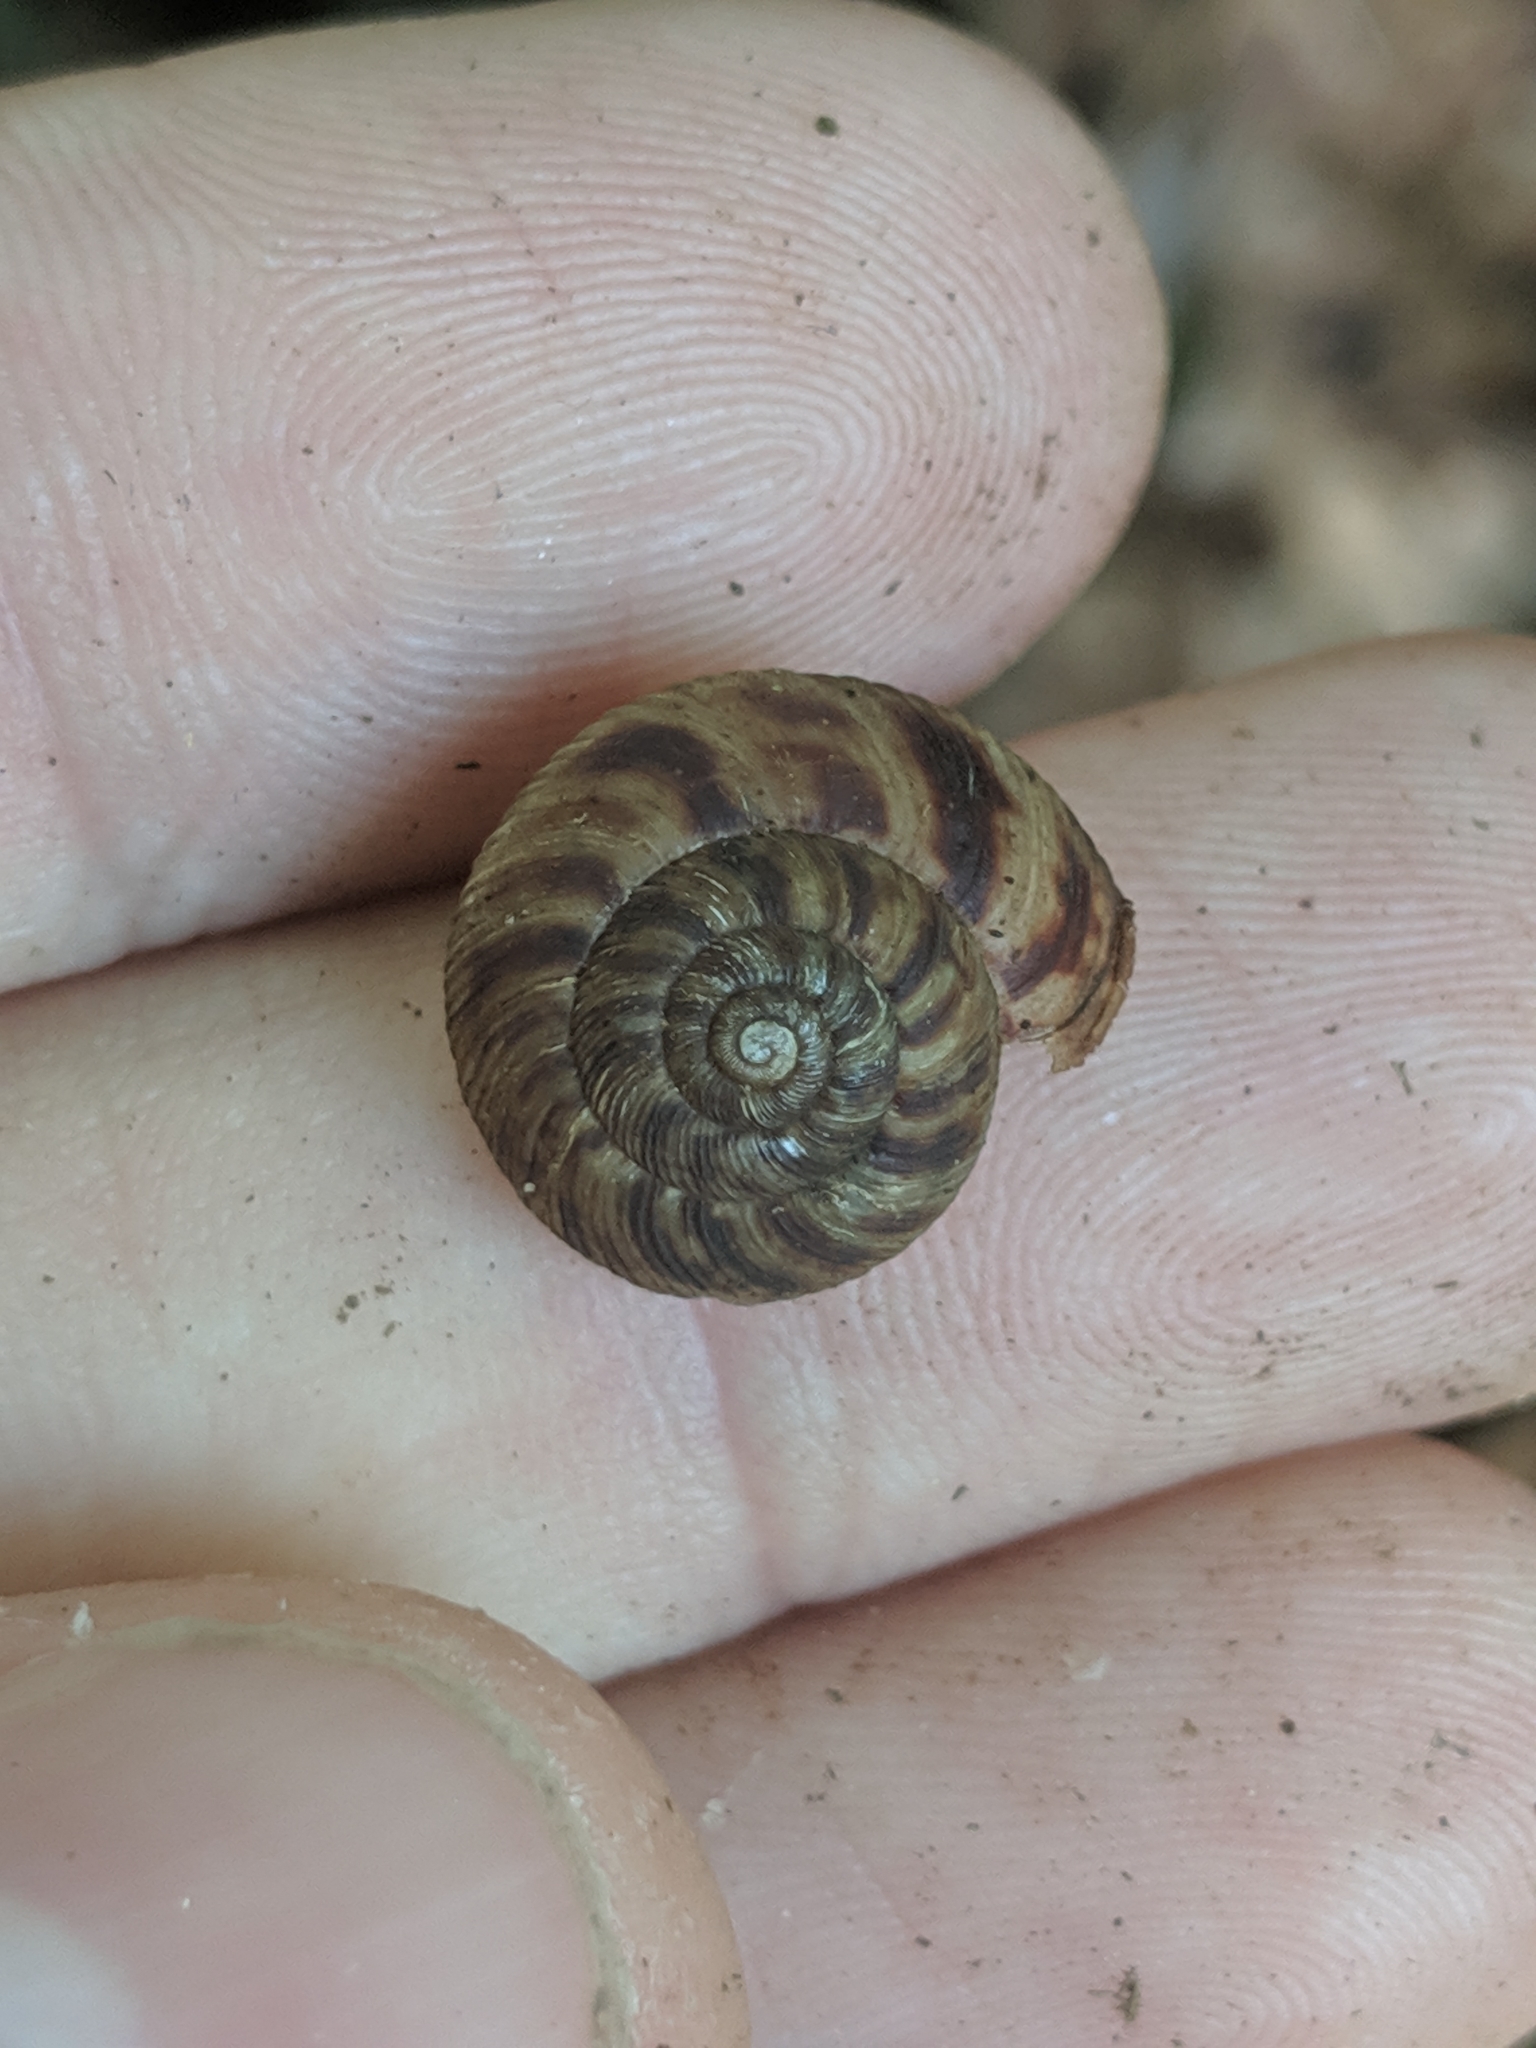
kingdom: Animalia
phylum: Mollusca
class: Gastropoda
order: Stylommatophora
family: Discidae
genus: Anguispira
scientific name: Anguispira alternata
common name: Flamed tigersnail
